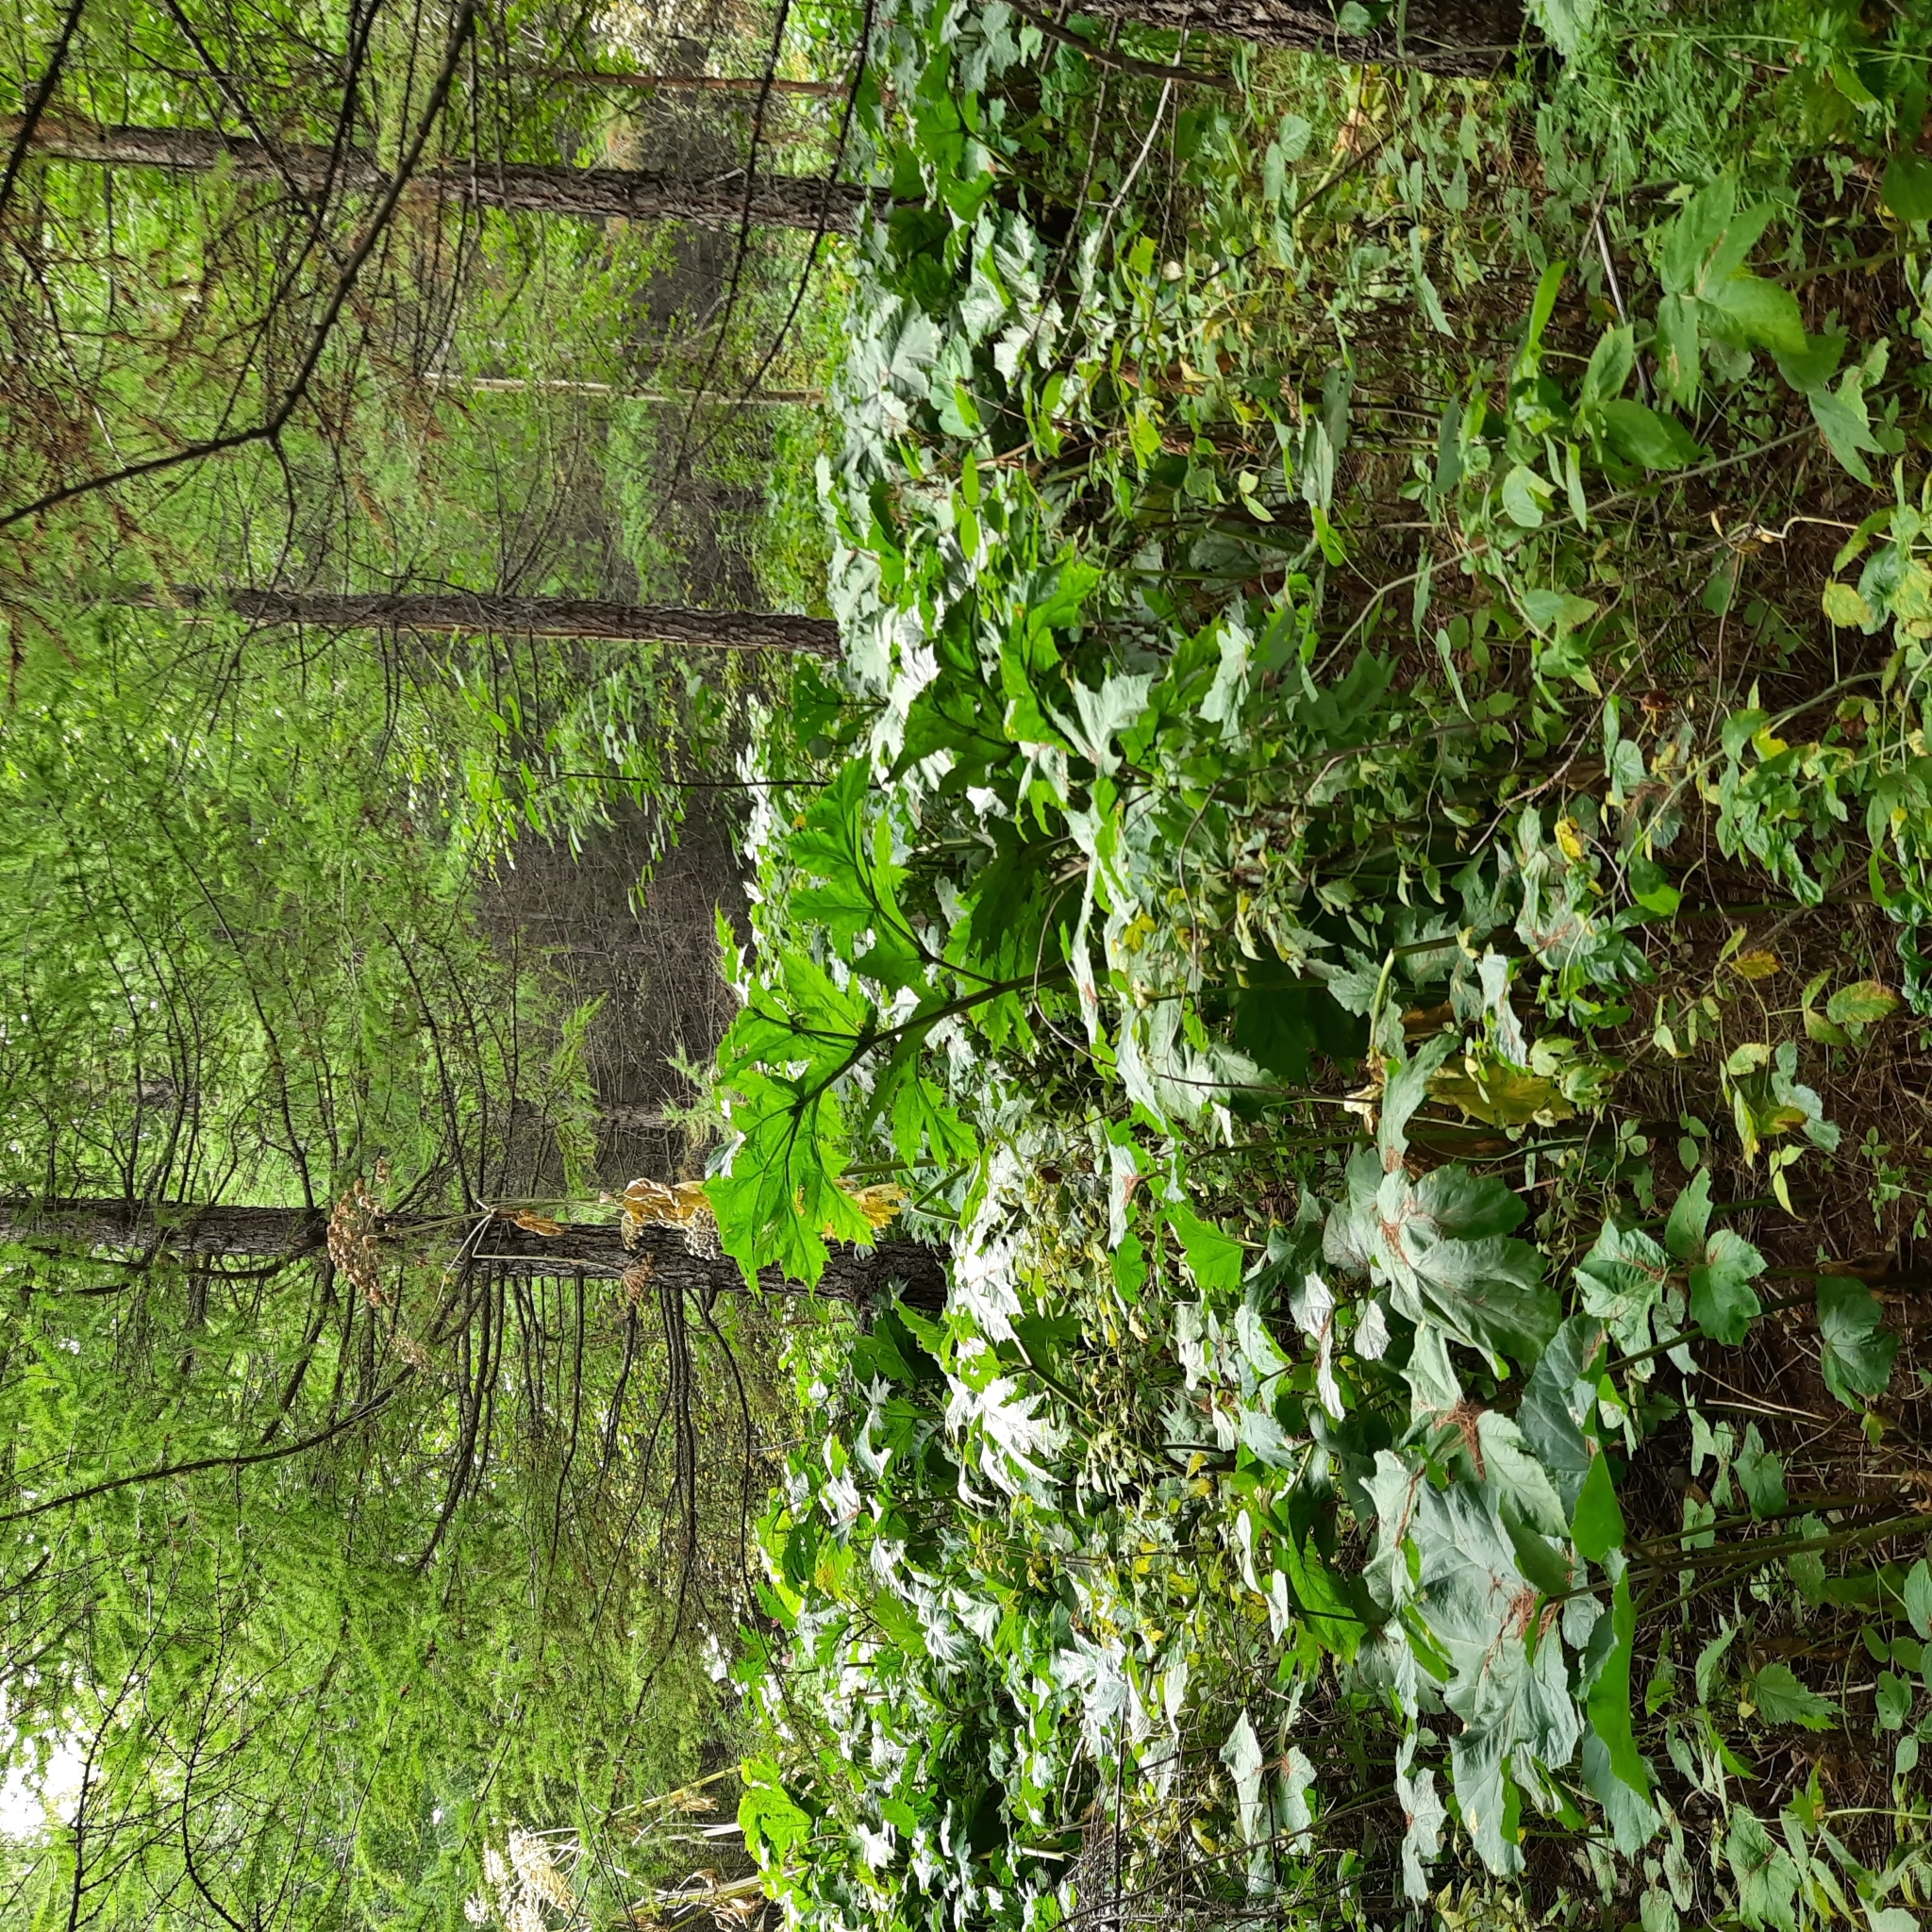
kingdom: Plantae
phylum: Tracheophyta
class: Magnoliopsida
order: Apiales
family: Apiaceae
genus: Heracleum
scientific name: Heracleum sosnowskyi
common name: Sosnowsky's hogweed
